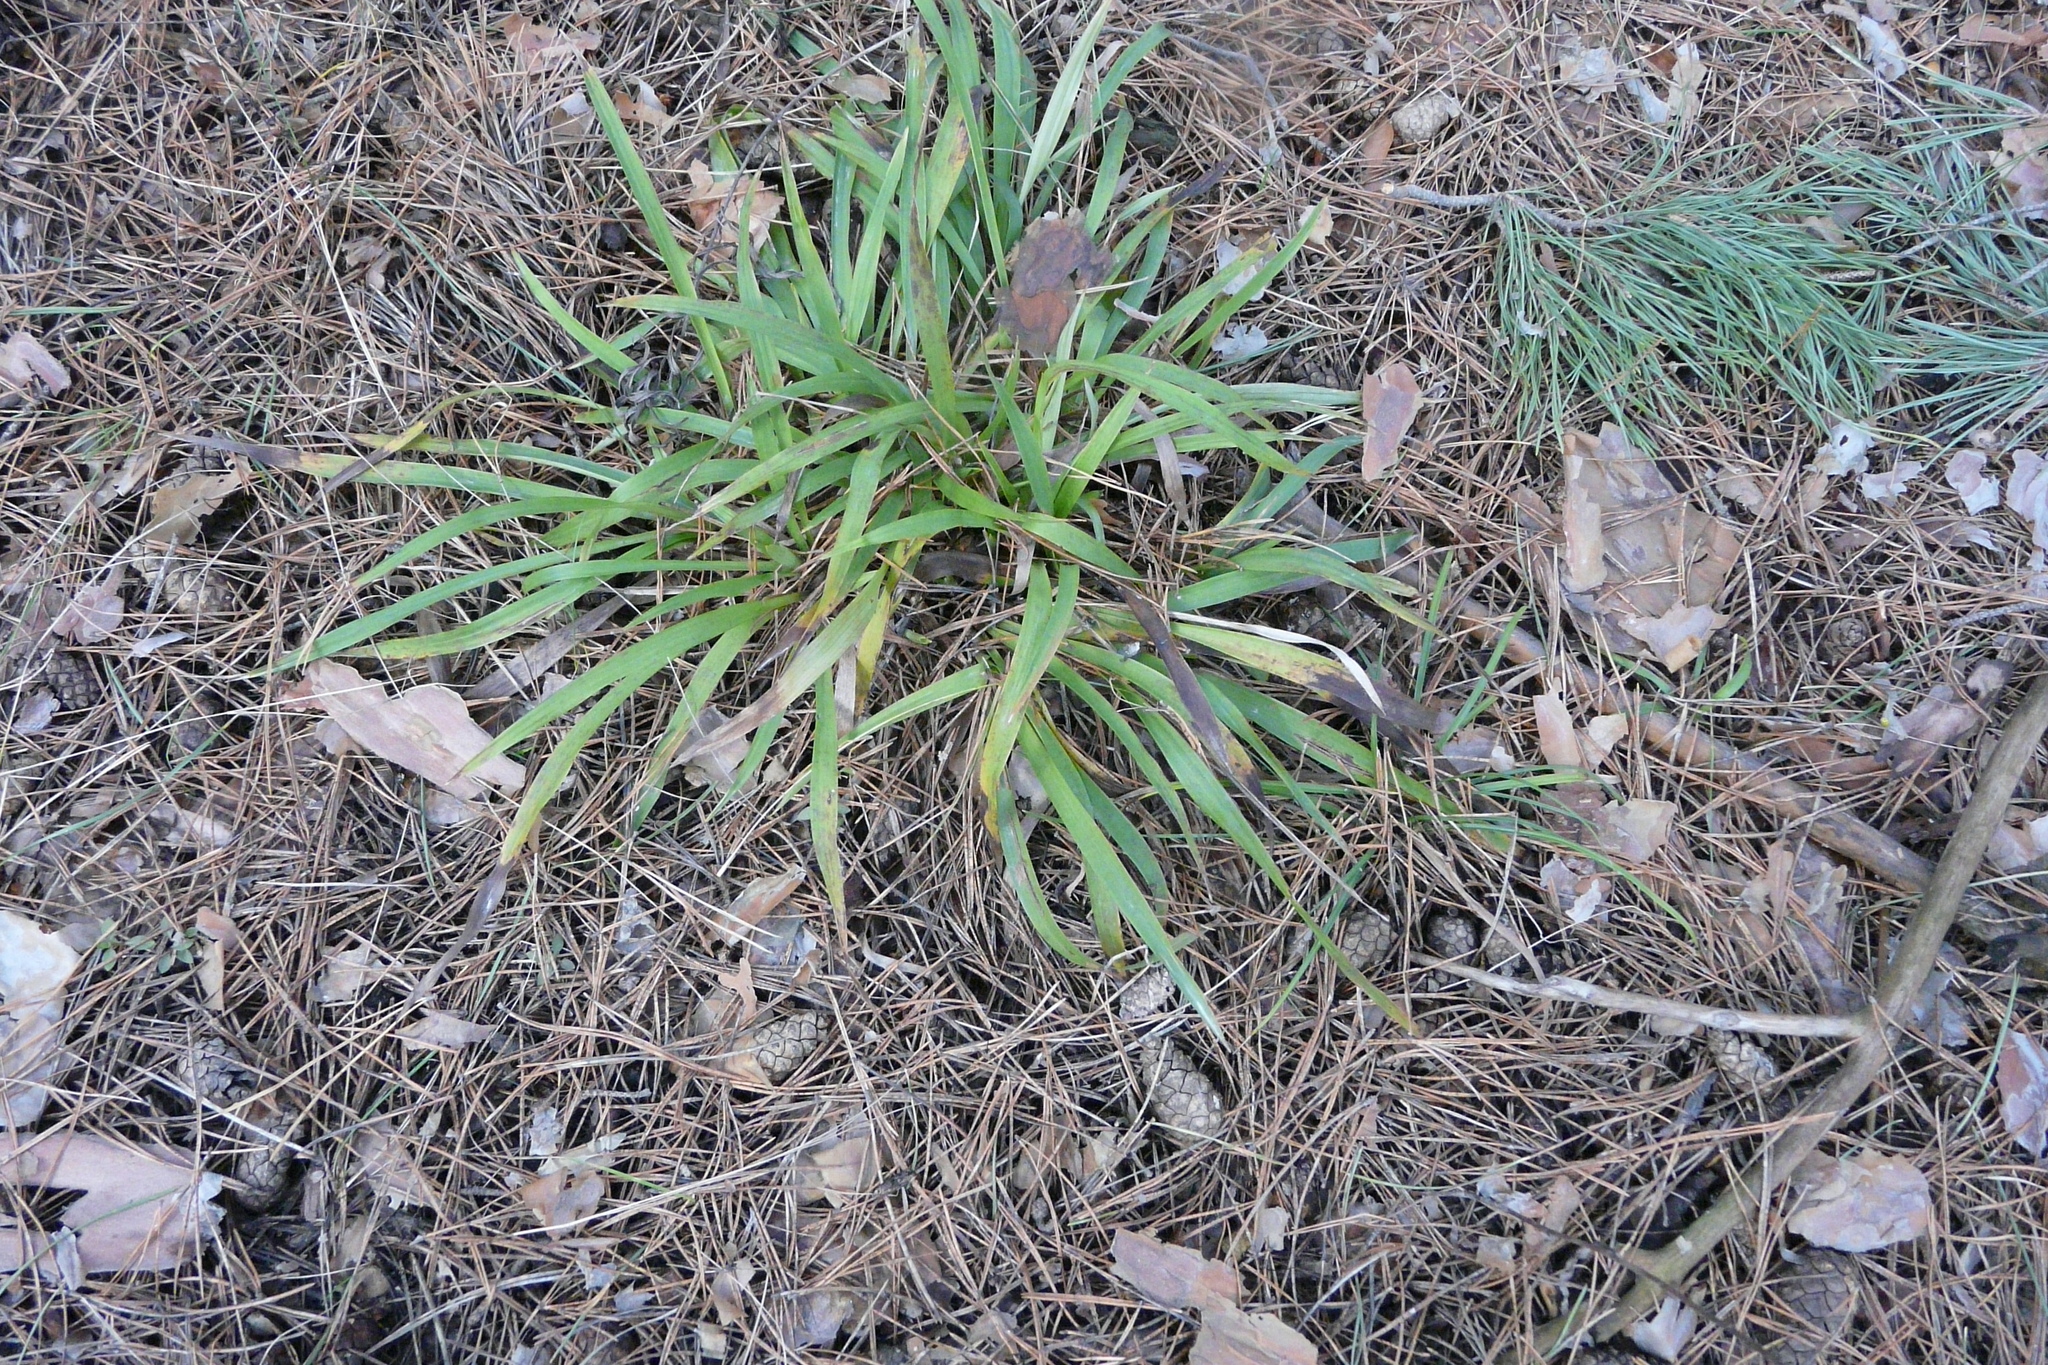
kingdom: Plantae
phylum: Tracheophyta
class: Liliopsida
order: Poales
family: Juncaceae
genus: Luzula
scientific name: Luzula pilosa
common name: Hairy wood-rush
